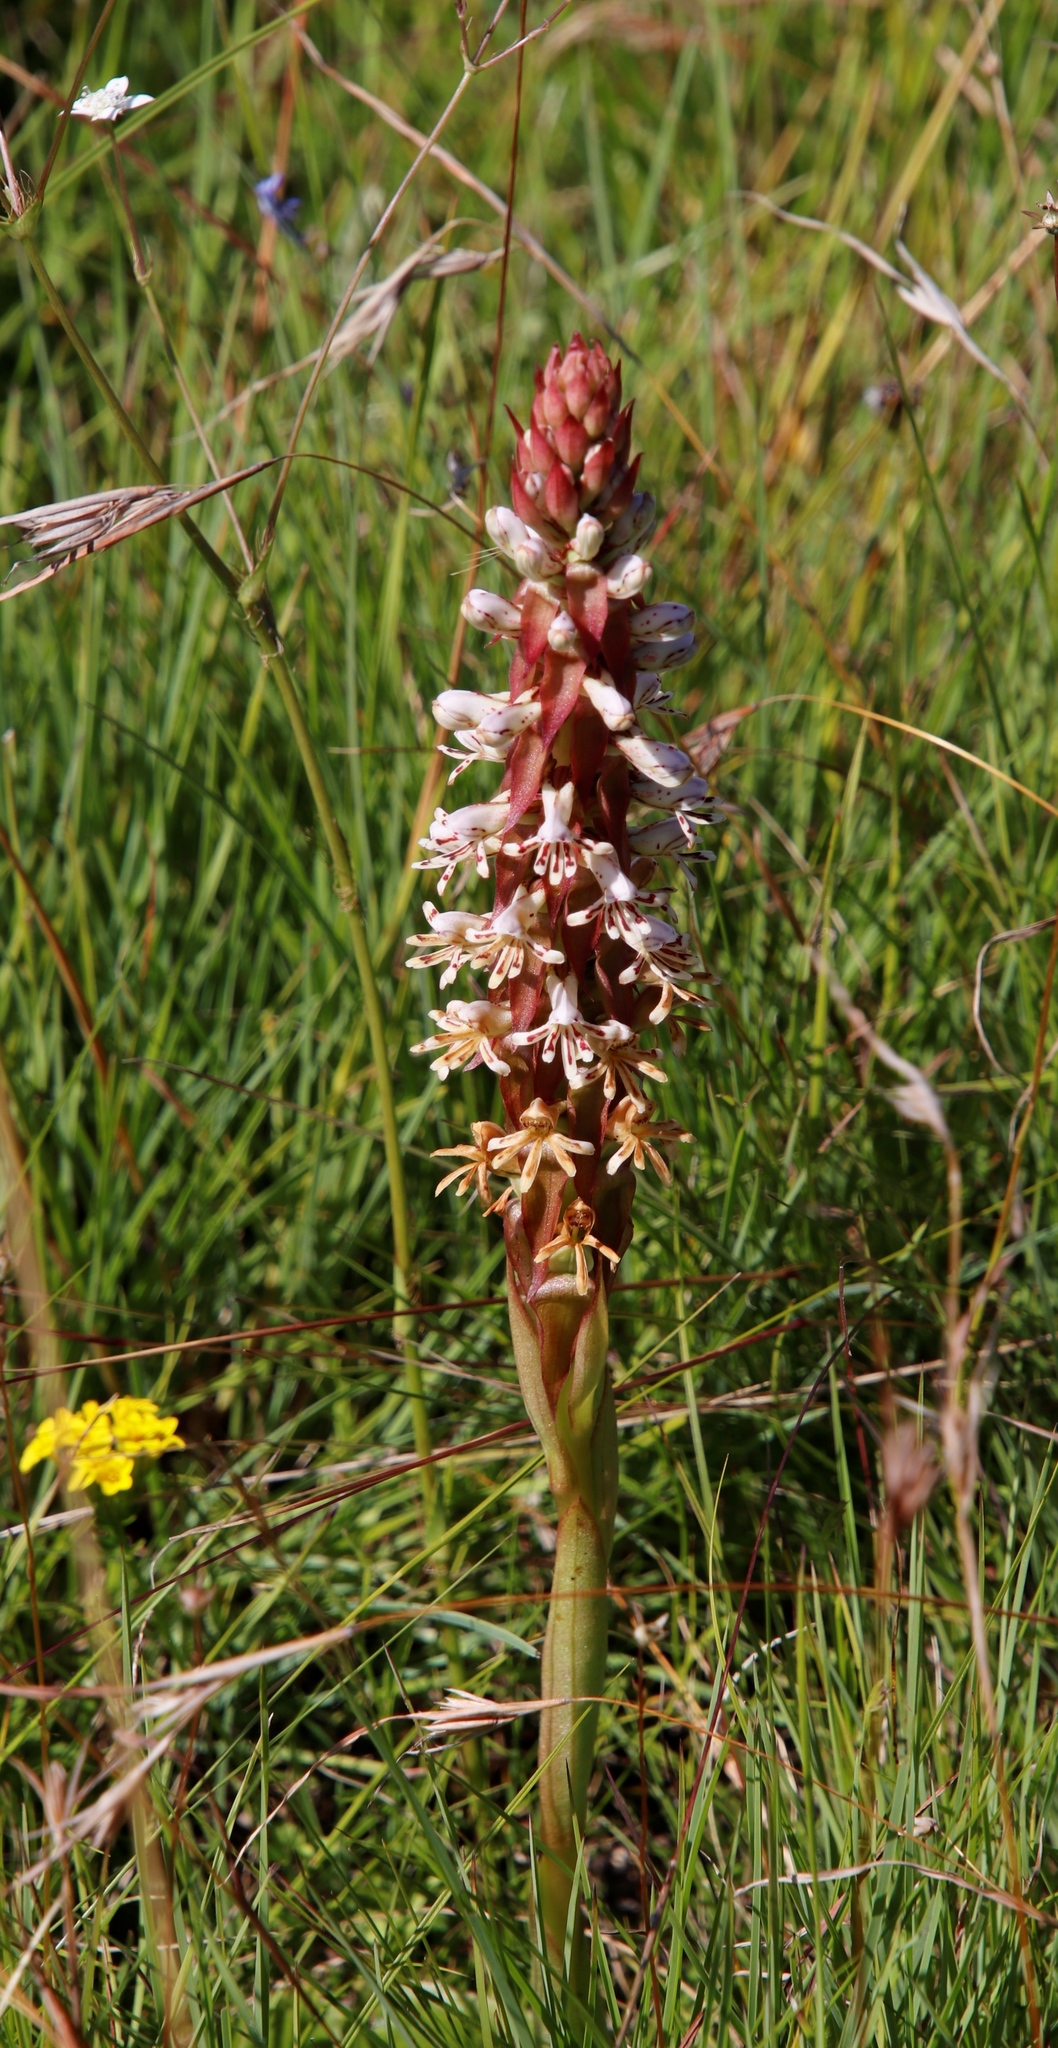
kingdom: Plantae
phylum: Tracheophyta
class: Liliopsida
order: Asparagales
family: Orchidaceae
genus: Satyrium
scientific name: Satyrium cristatum
